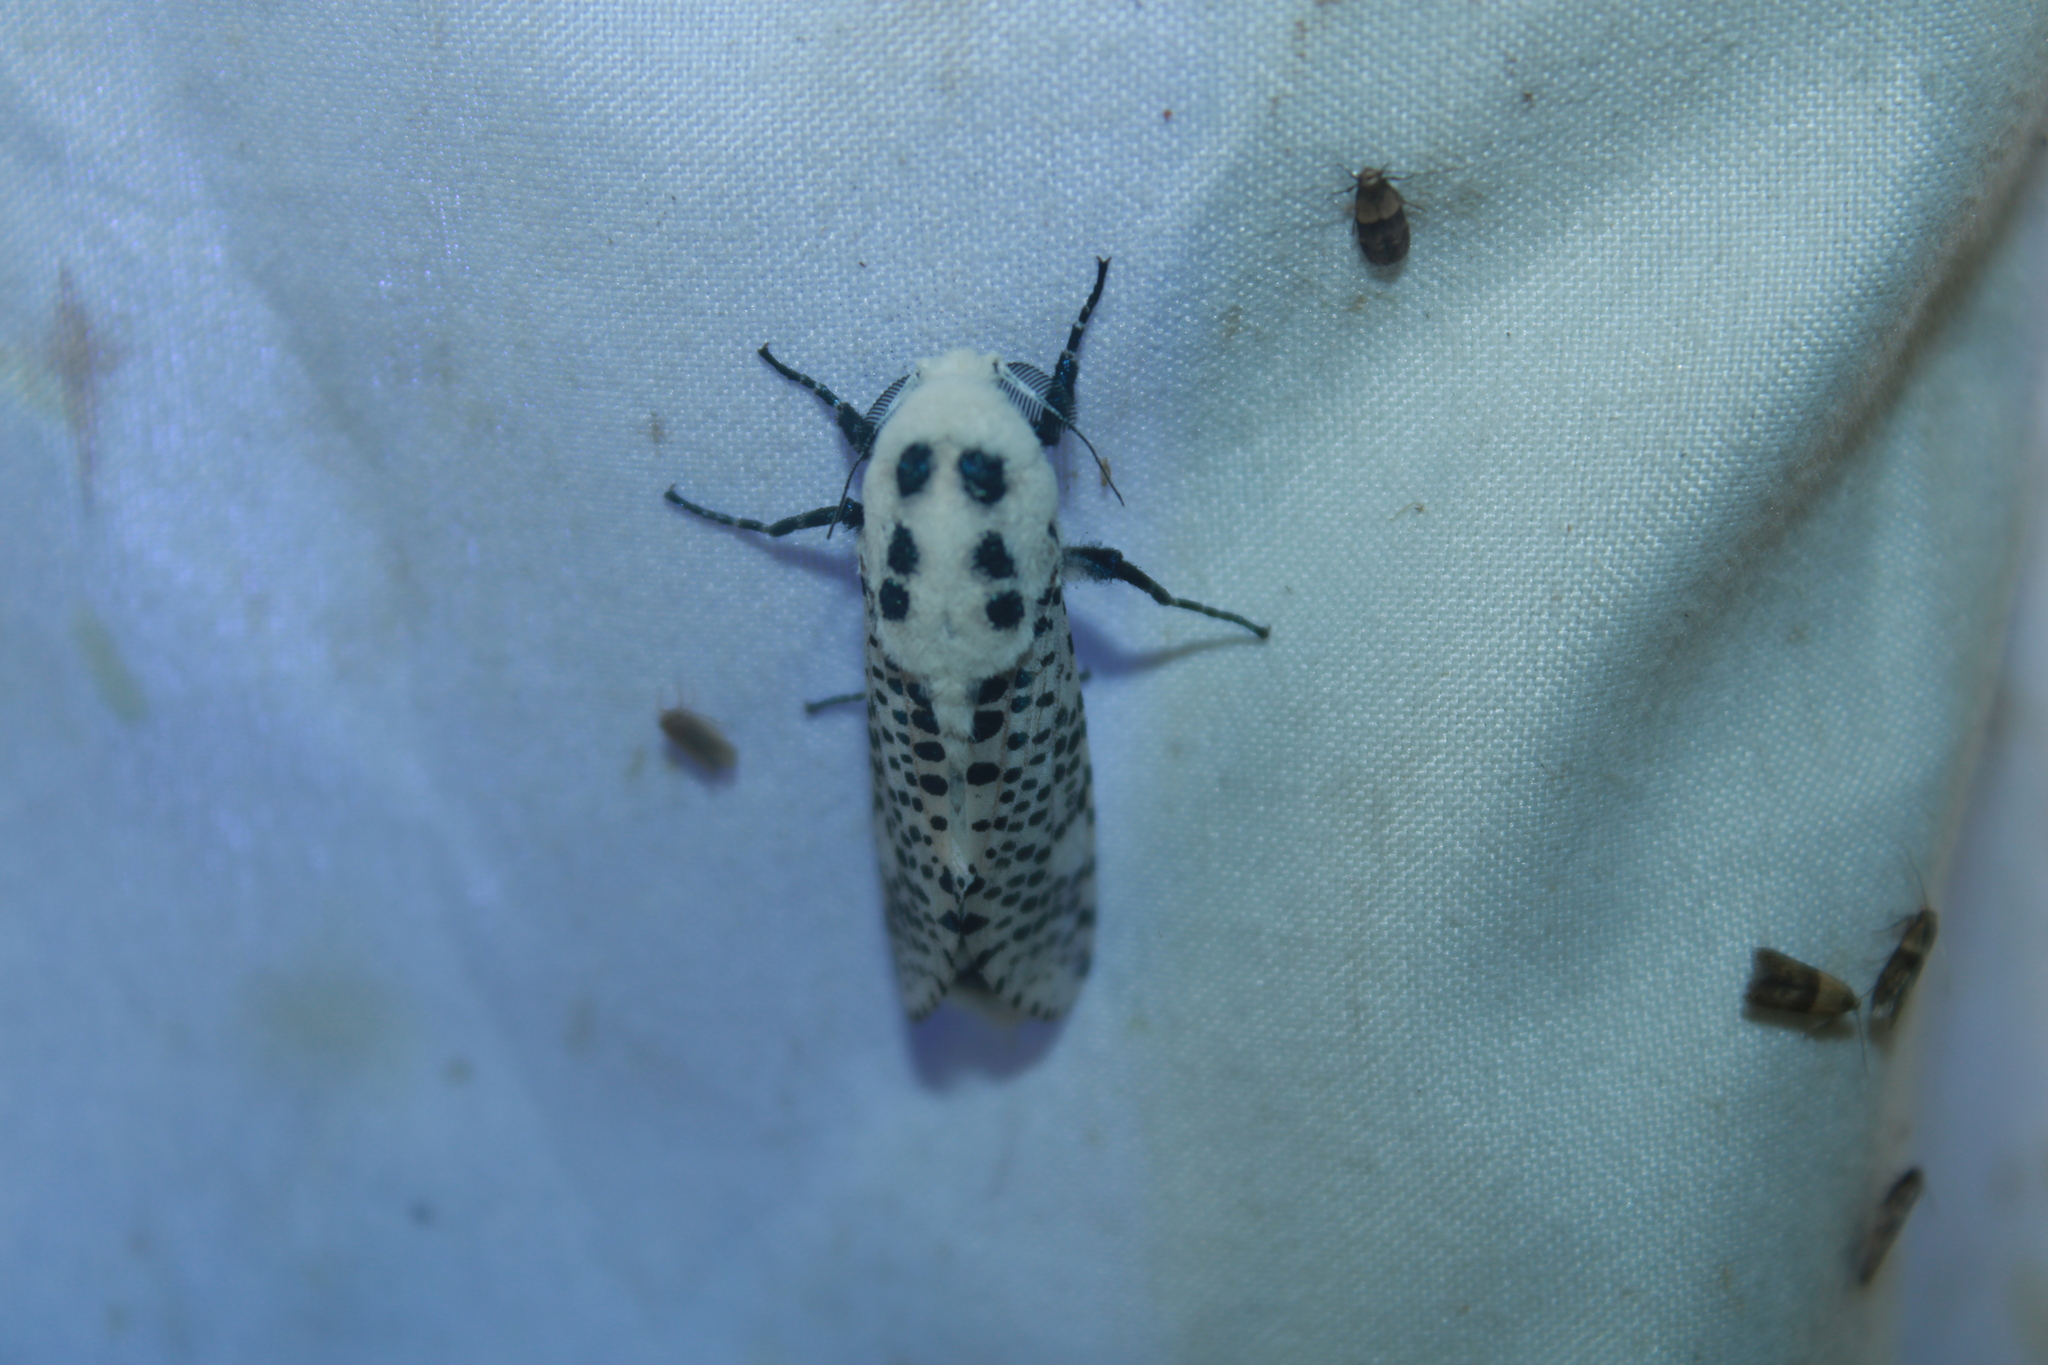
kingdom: Animalia
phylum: Arthropoda
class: Insecta
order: Lepidoptera
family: Cossidae
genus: Zeuzera
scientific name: Zeuzera pyrina
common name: Leopard moth
